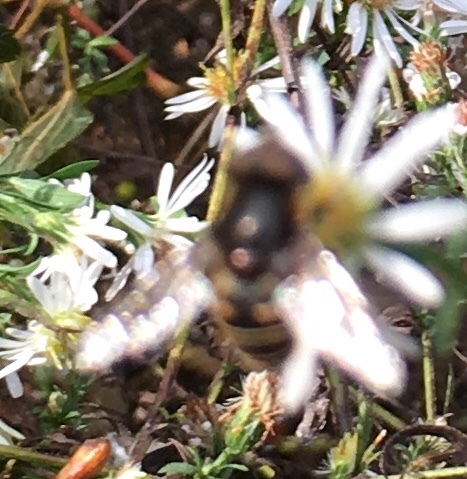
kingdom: Animalia
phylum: Arthropoda
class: Insecta
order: Diptera
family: Syrphidae
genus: Eristalis
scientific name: Eristalis dimidiata
